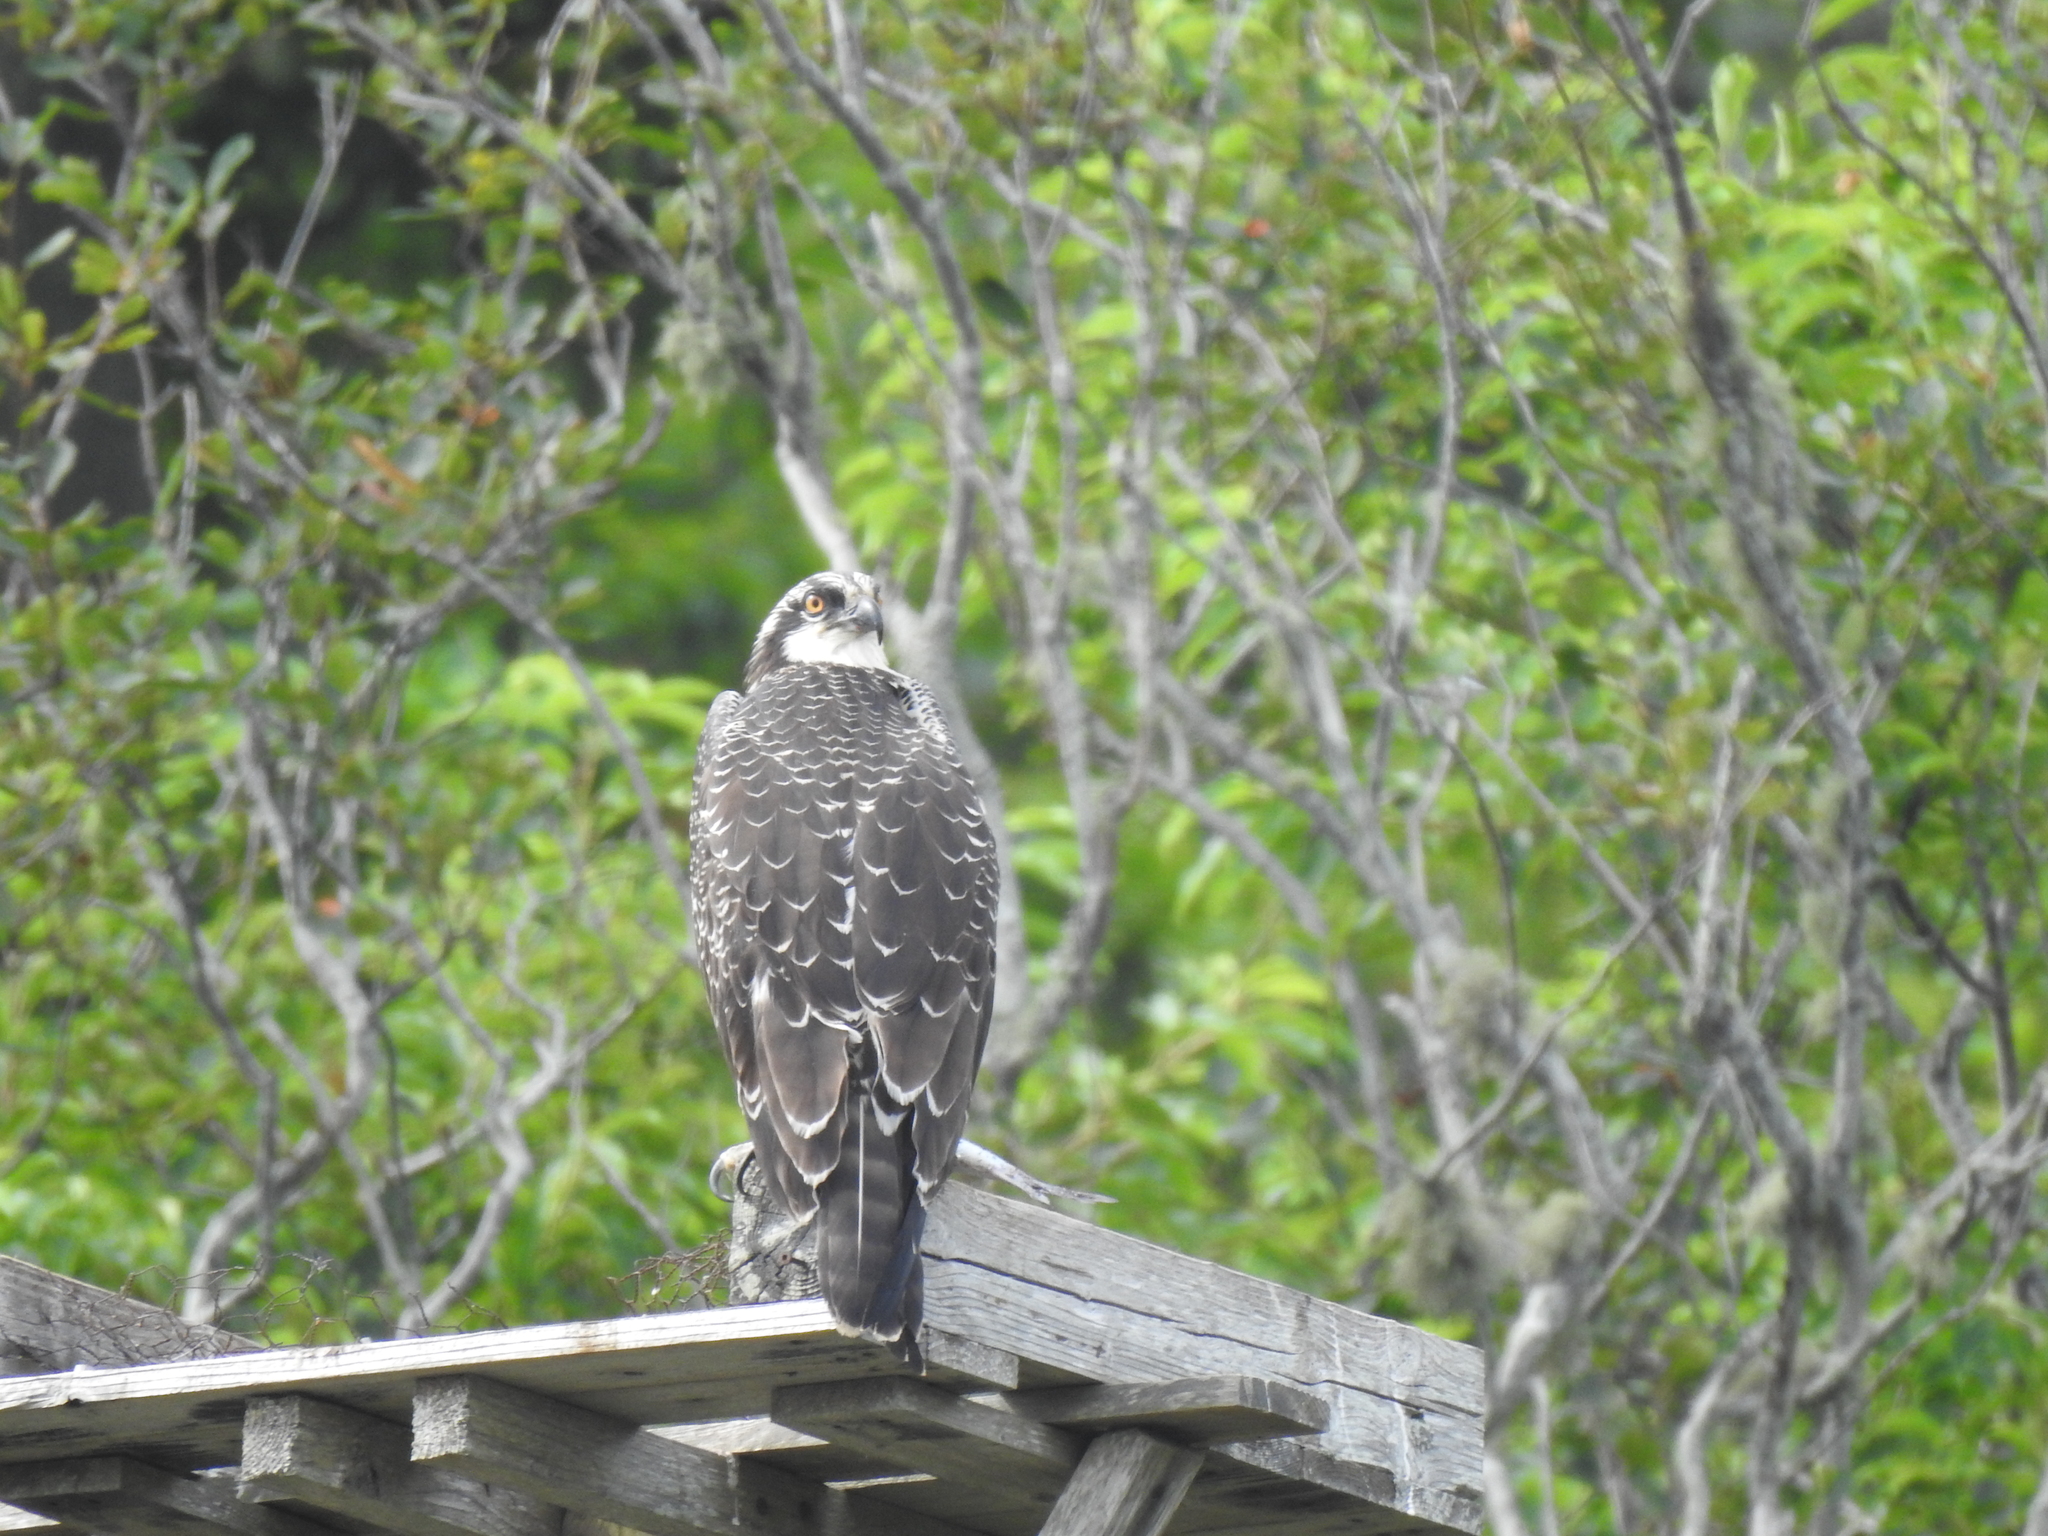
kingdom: Animalia
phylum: Chordata
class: Aves
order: Accipitriformes
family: Pandionidae
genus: Pandion
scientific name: Pandion haliaetus
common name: Osprey
